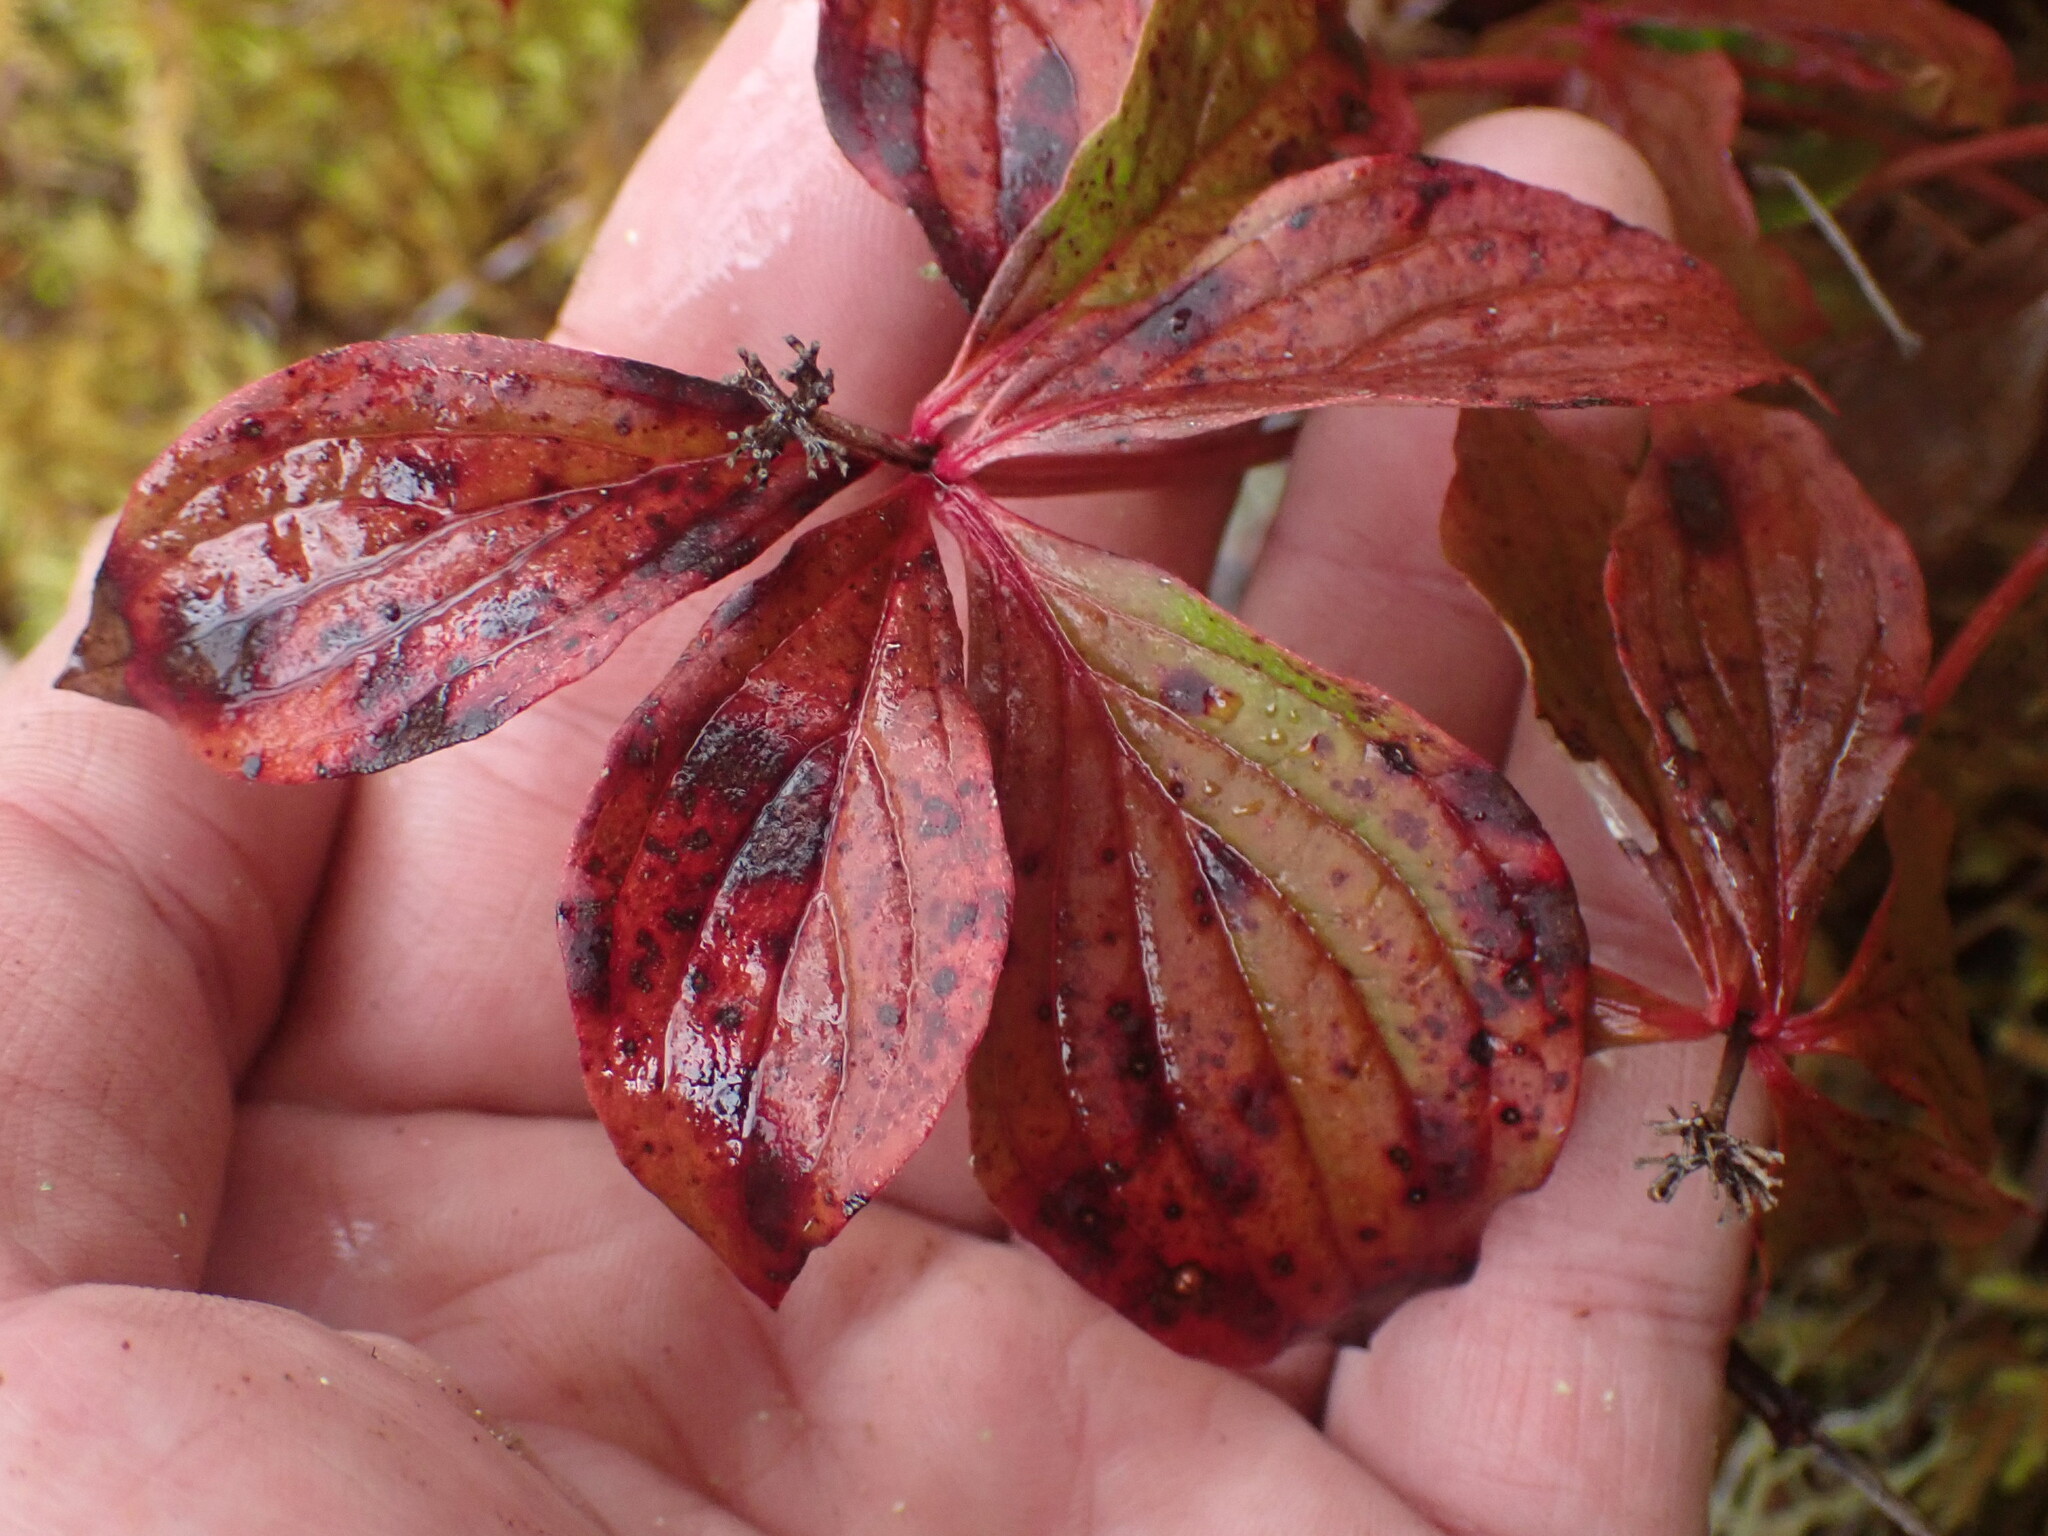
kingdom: Plantae
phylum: Tracheophyta
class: Magnoliopsida
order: Cornales
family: Cornaceae
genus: Cornus
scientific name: Cornus unalaschkensis
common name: Alaska bunchberry
